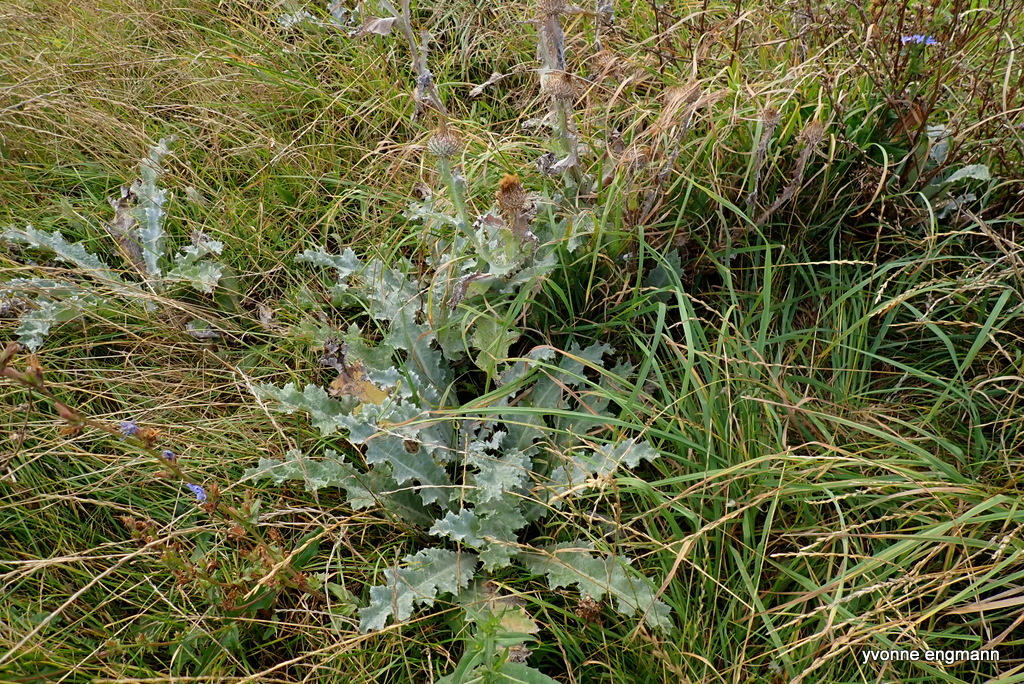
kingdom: Plantae
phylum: Tracheophyta
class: Magnoliopsida
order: Asterales
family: Asteraceae
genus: Onopordum
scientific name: Onopordum acanthium
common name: Scotch thistle
